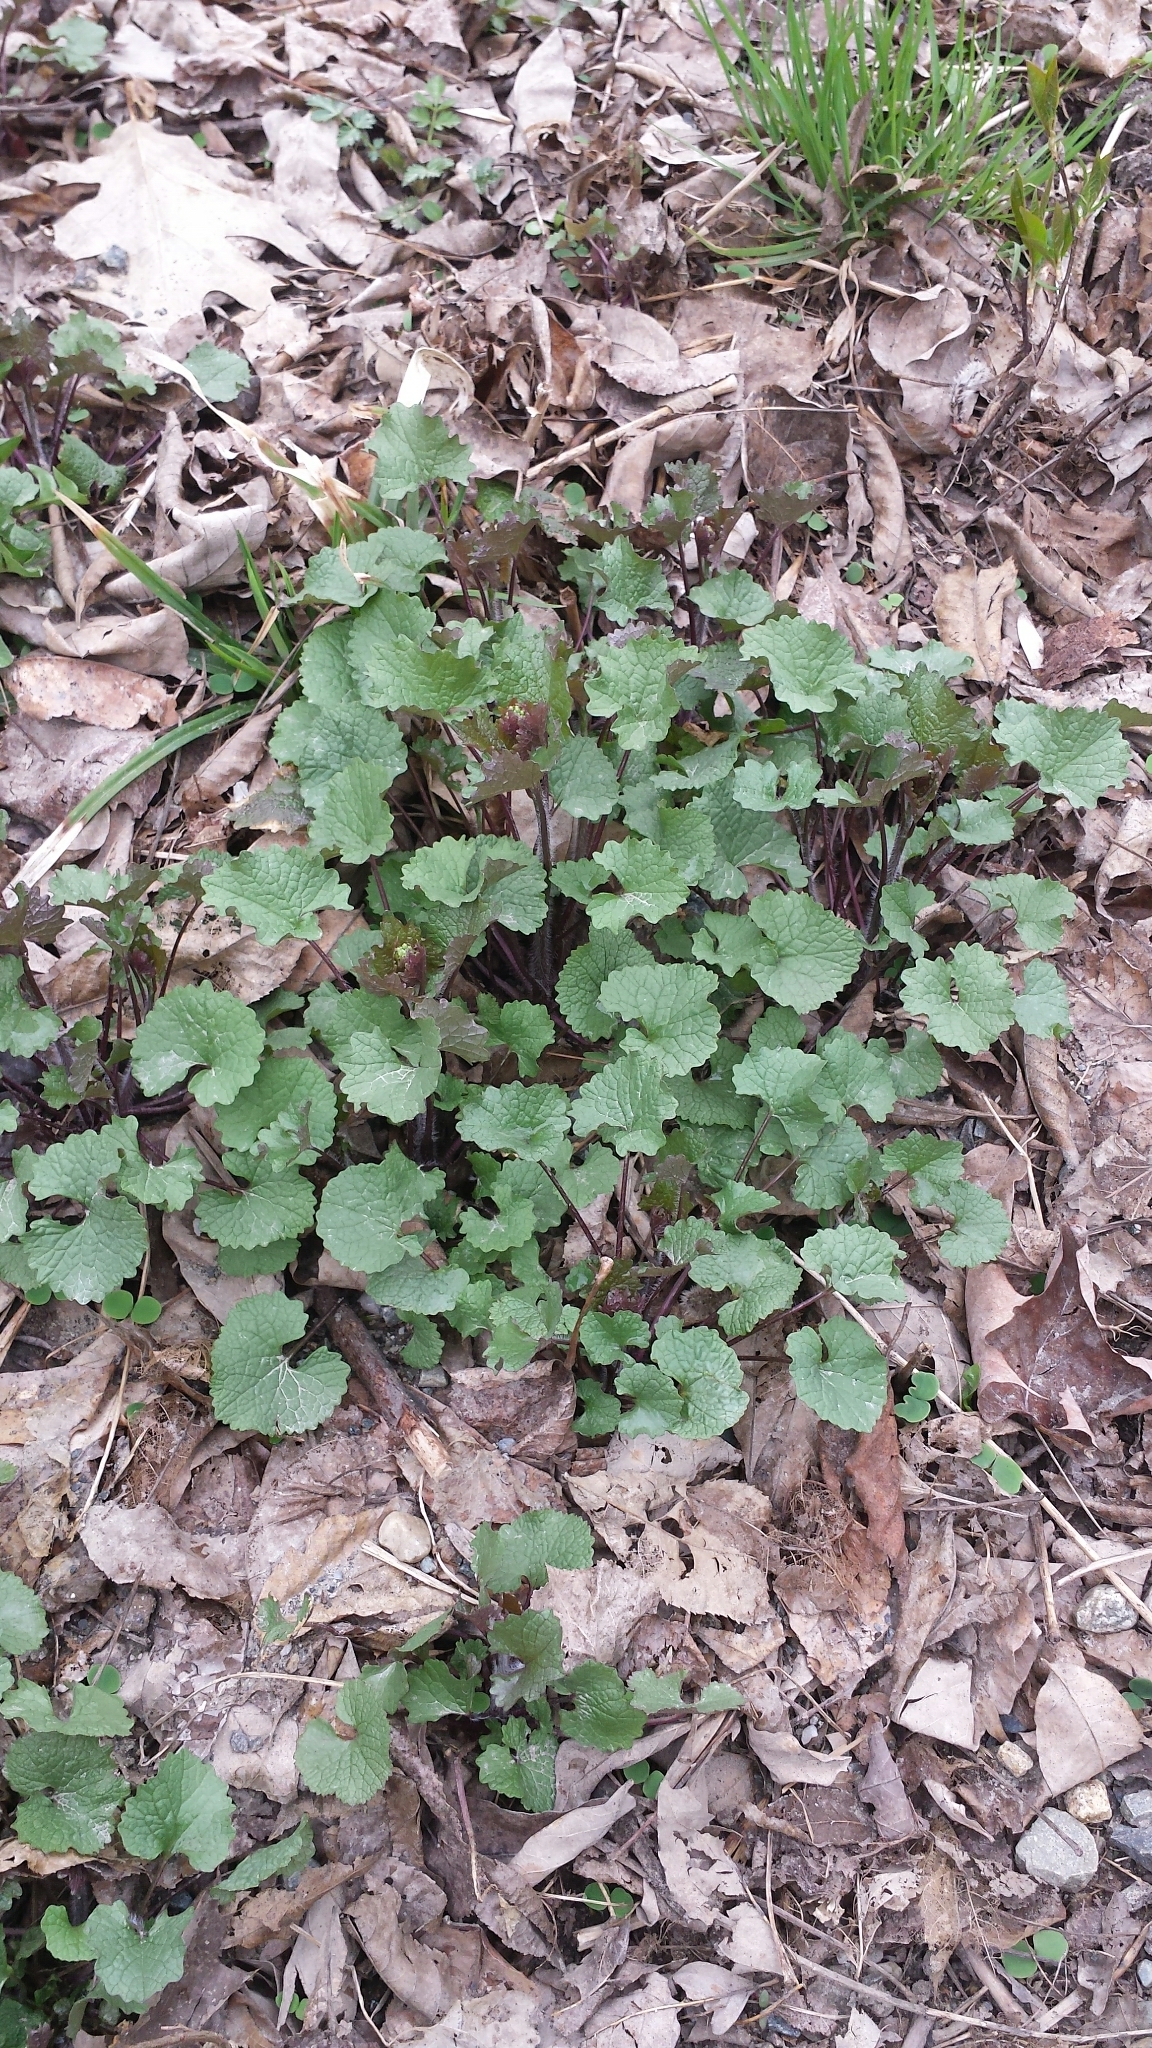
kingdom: Plantae
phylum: Tracheophyta
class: Magnoliopsida
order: Brassicales
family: Brassicaceae
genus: Alliaria
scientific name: Alliaria petiolata
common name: Garlic mustard
